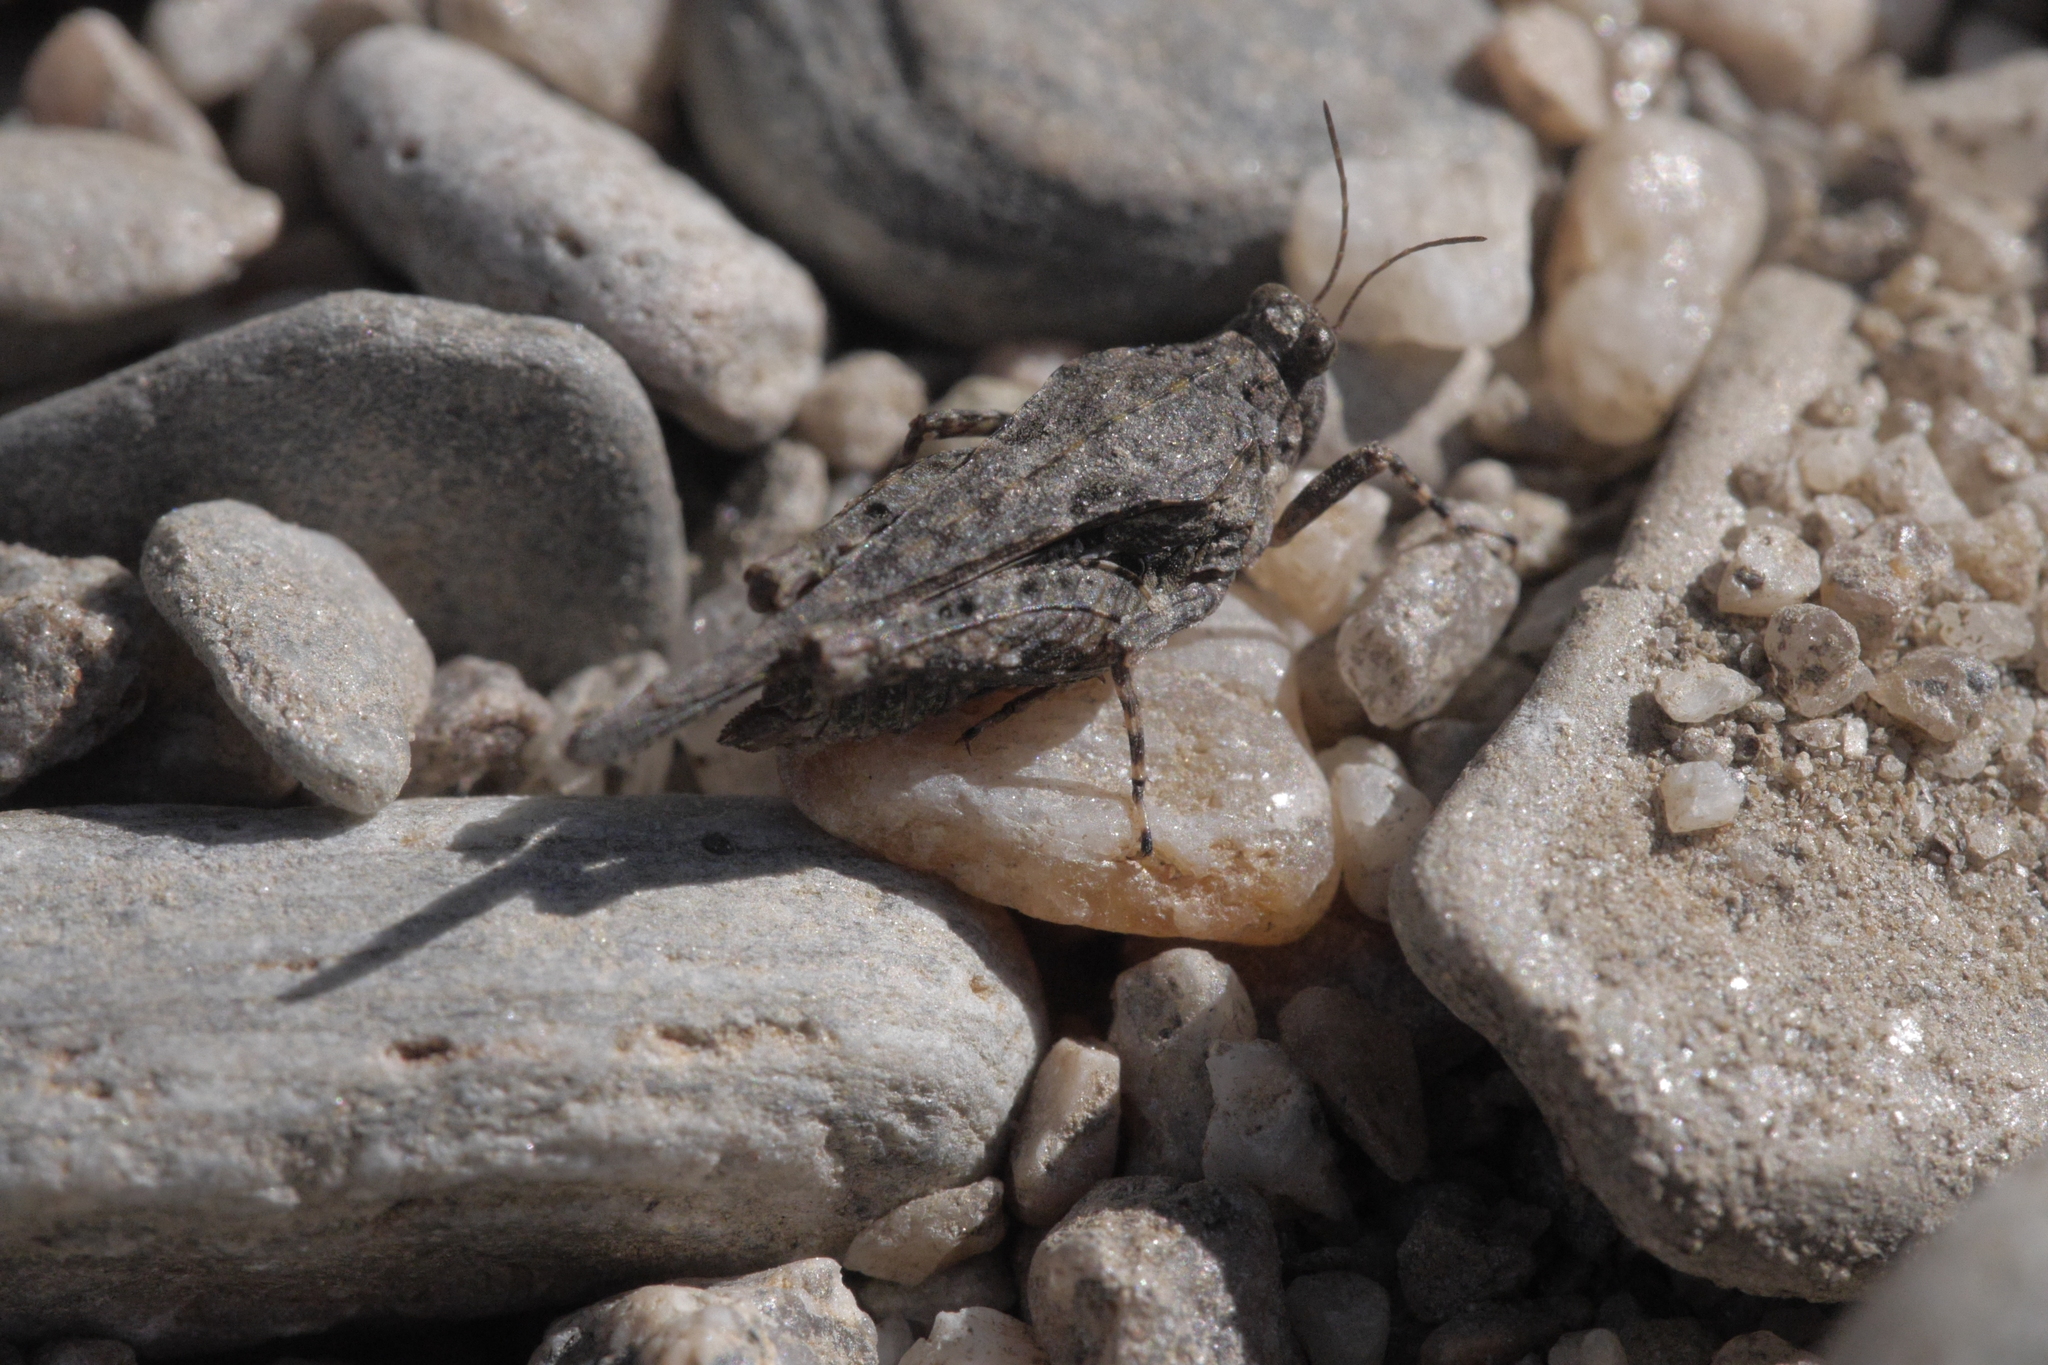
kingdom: Animalia
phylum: Arthropoda
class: Insecta
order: Orthoptera
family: Tetrigidae
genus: Paratettix
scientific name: Paratettix meridionalis
